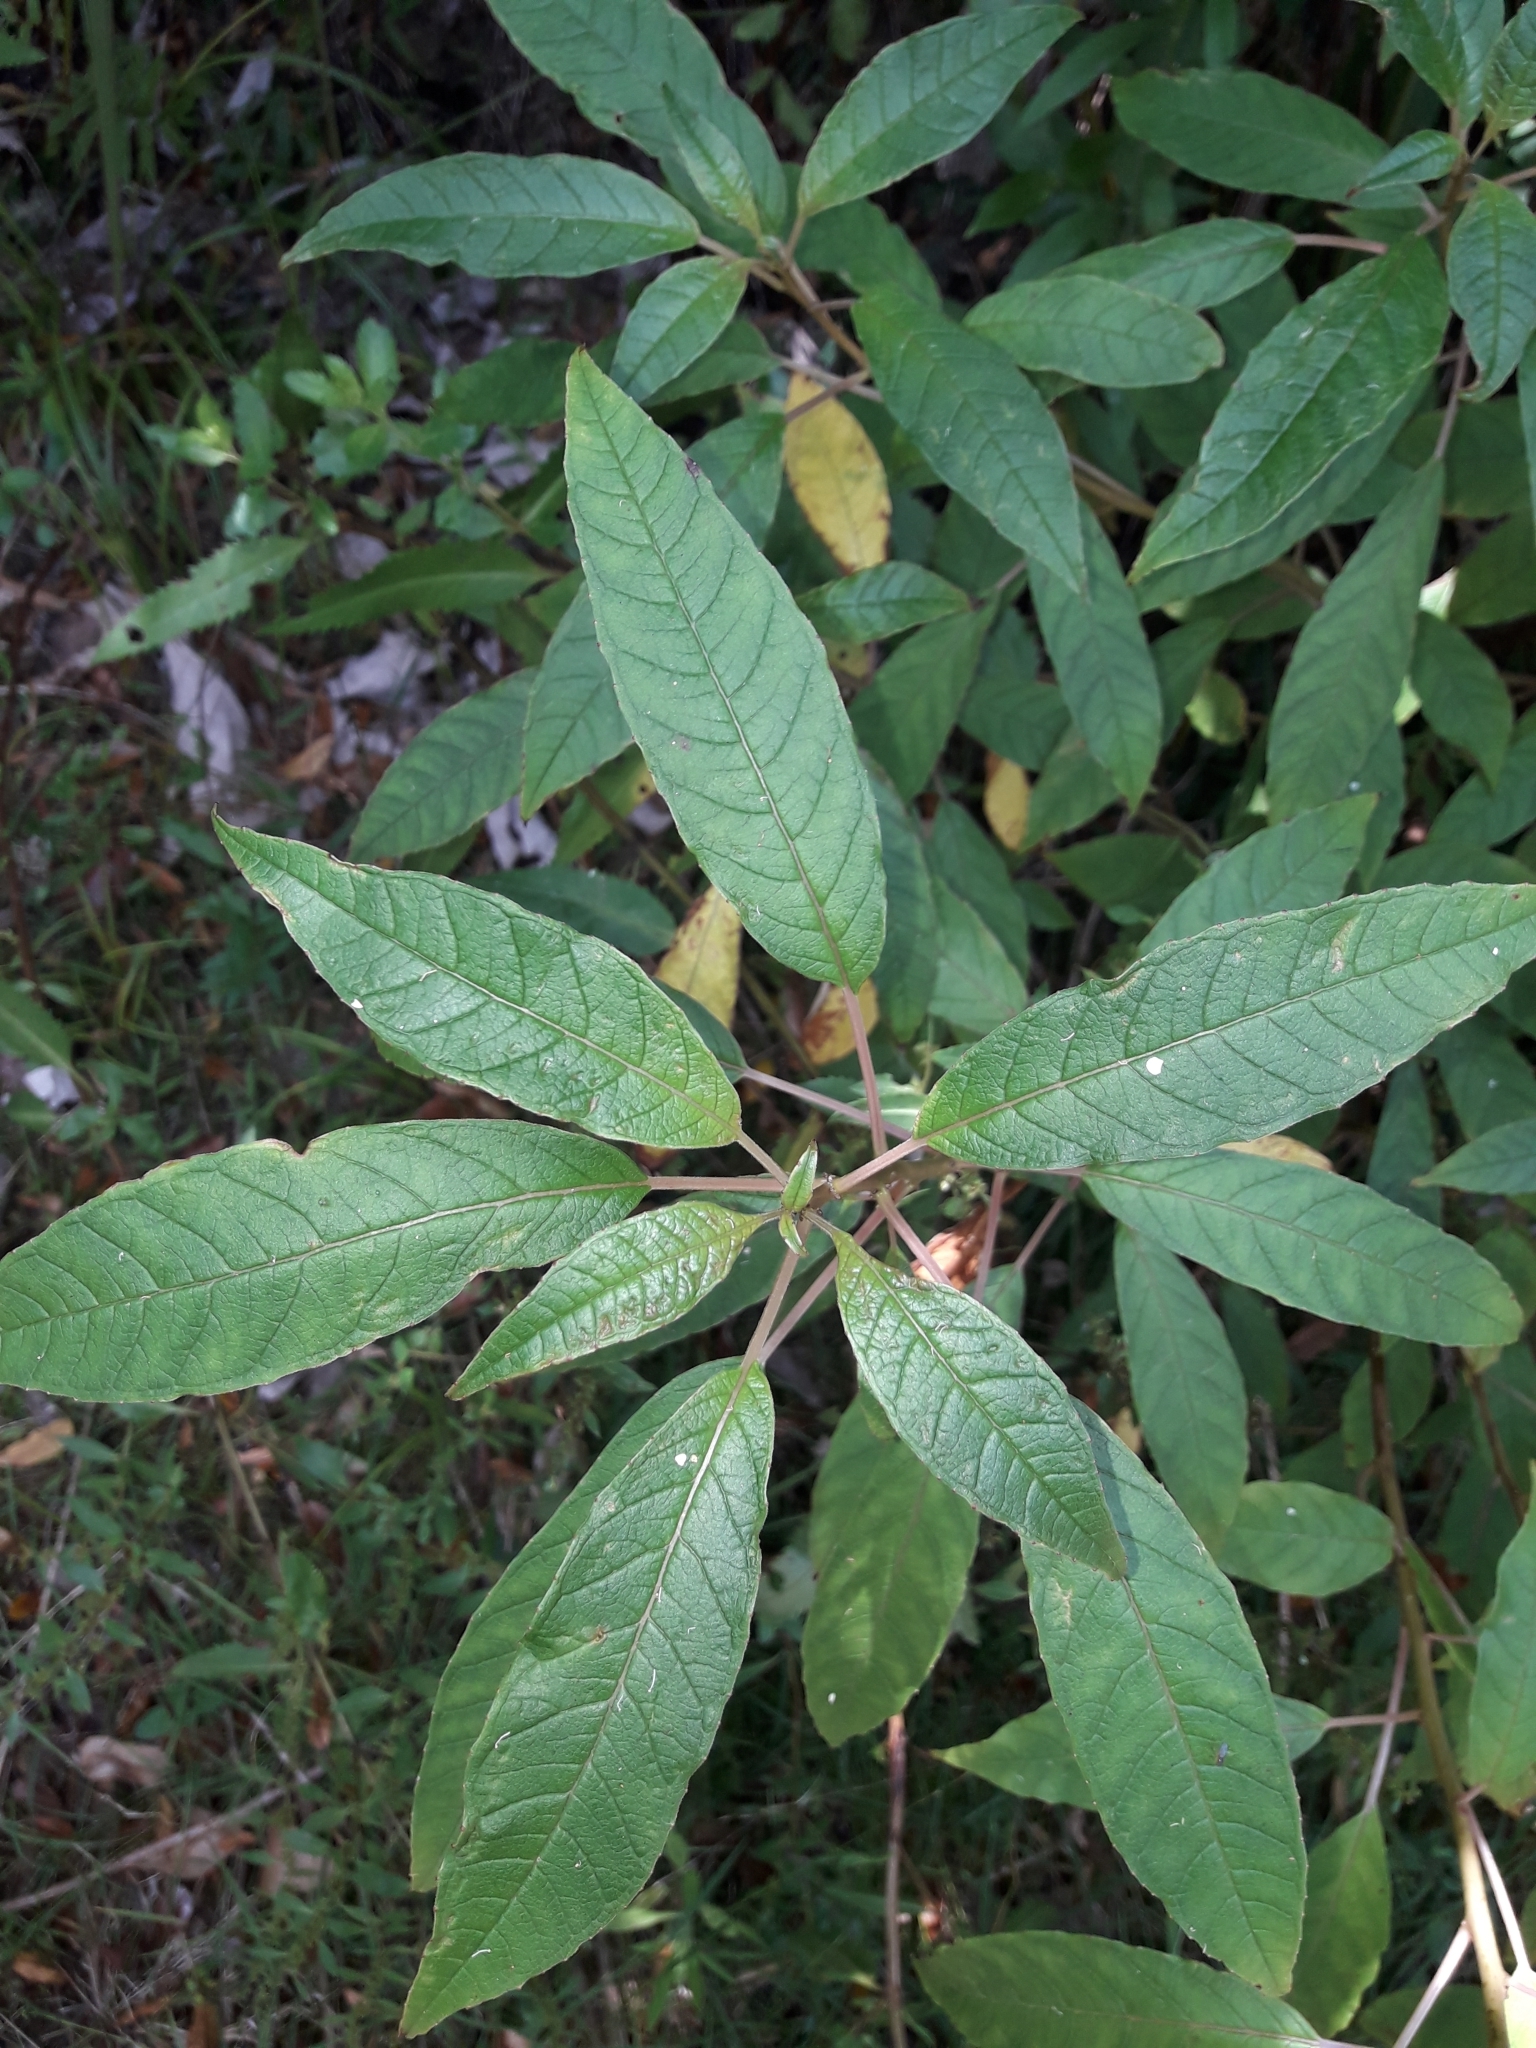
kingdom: Plantae
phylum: Tracheophyta
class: Magnoliopsida
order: Myrtales
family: Onagraceae
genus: Fuchsia
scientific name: Fuchsia excorticata
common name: Tree fuchsia
